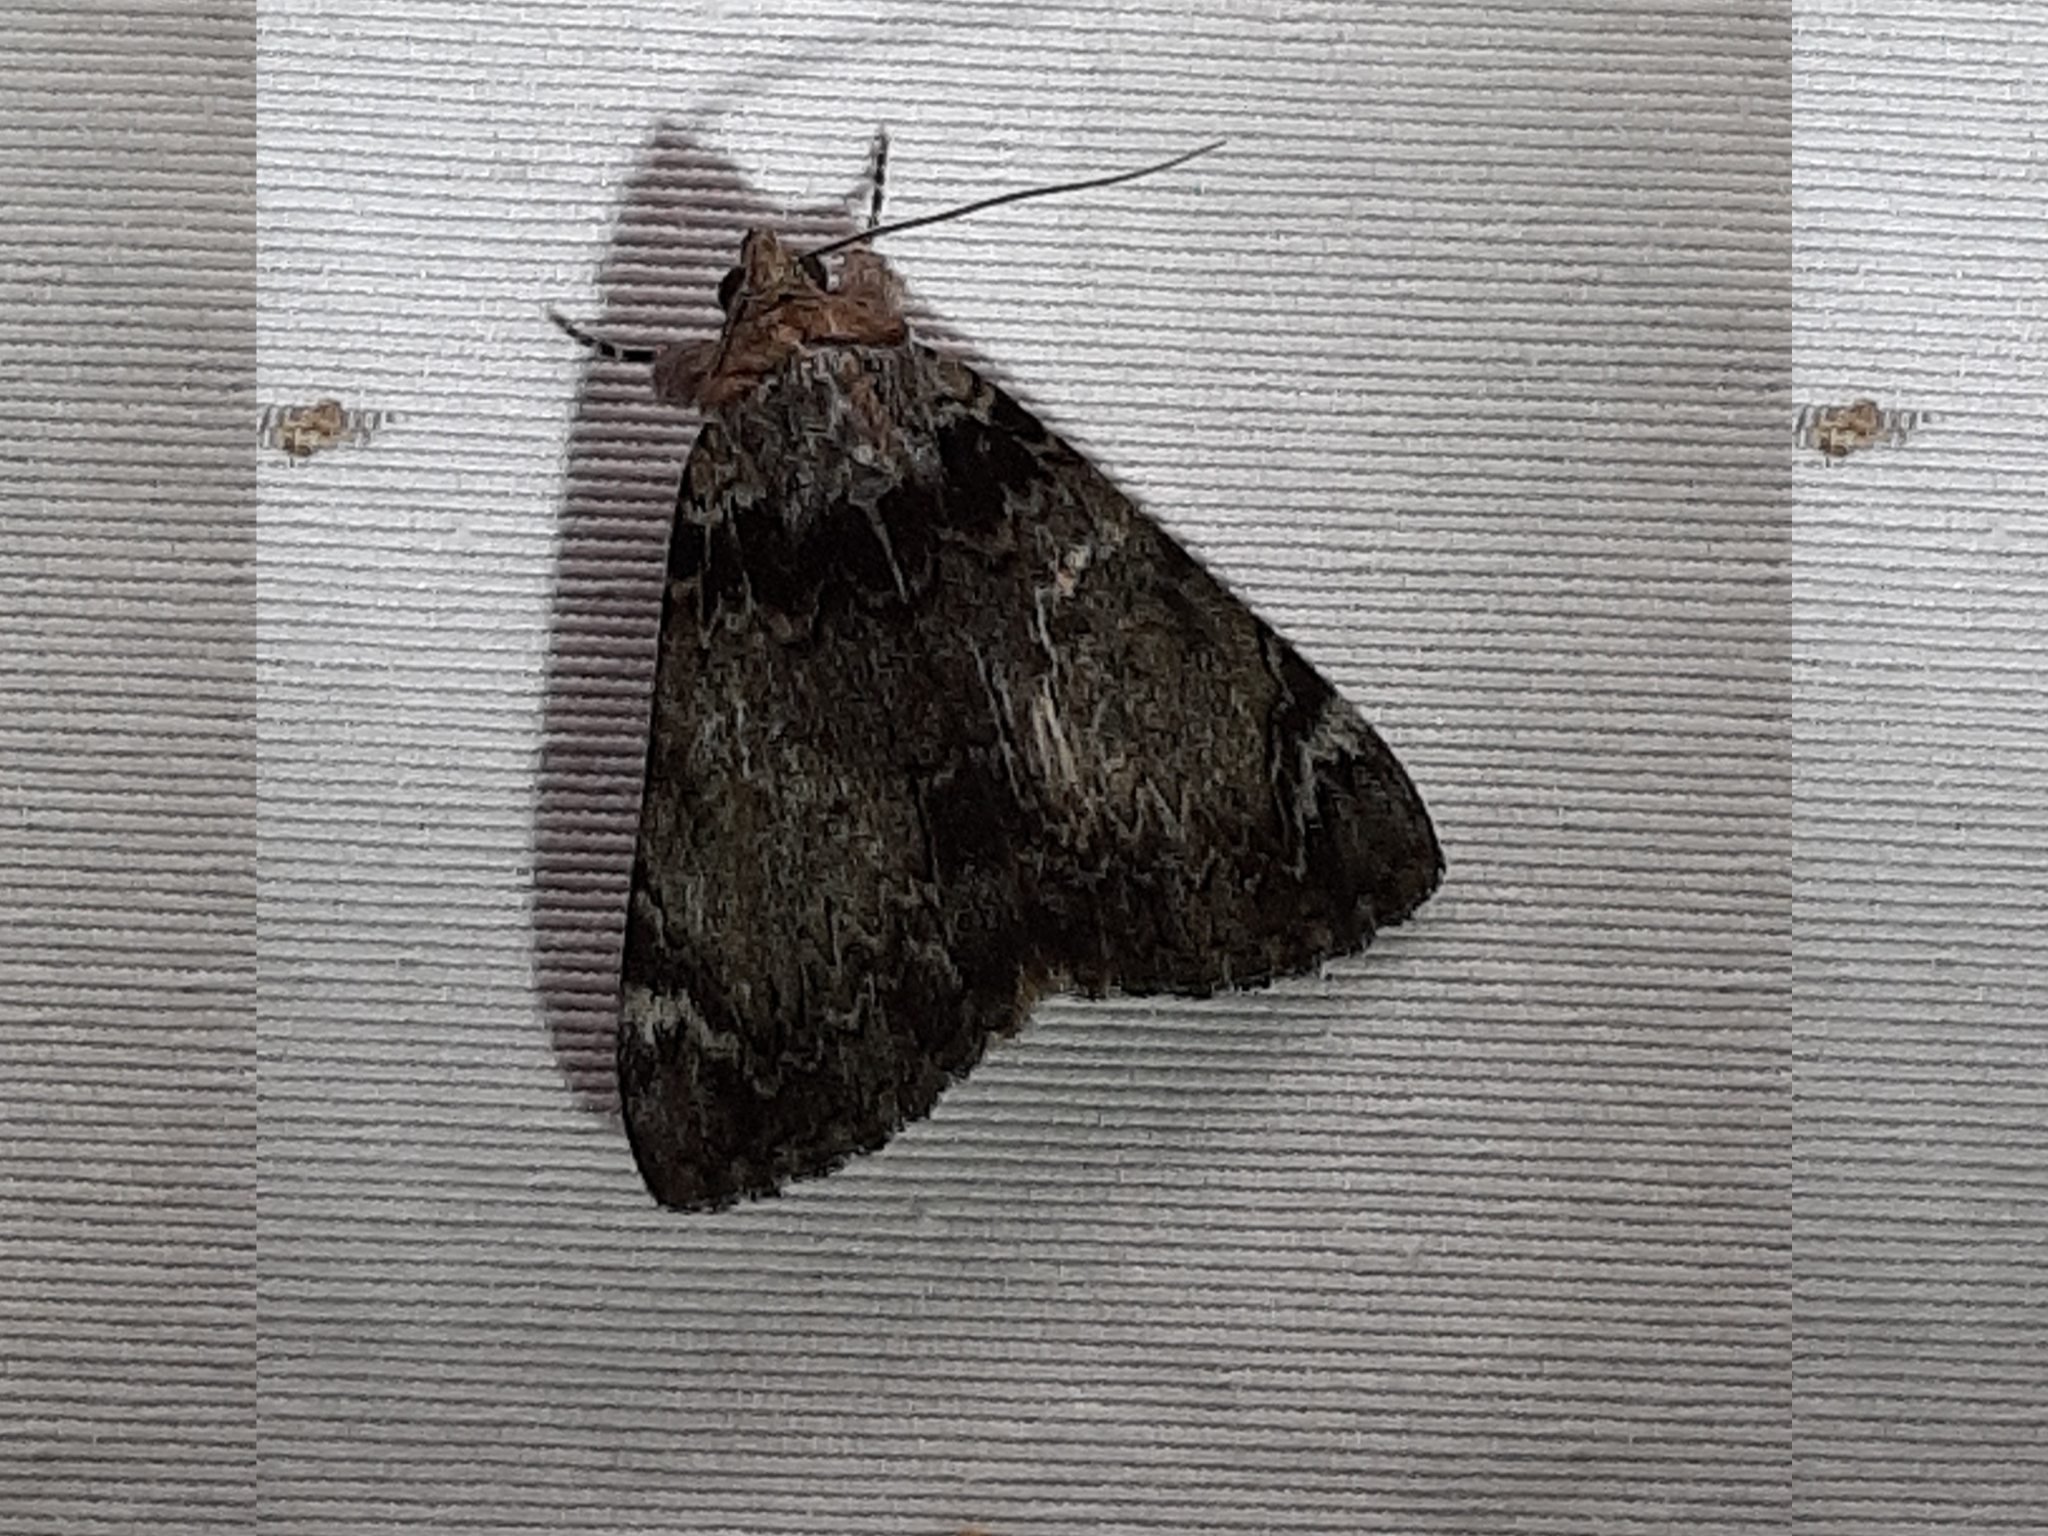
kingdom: Animalia
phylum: Arthropoda
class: Insecta
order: Lepidoptera
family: Erebidae
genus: Catocala
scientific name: Catocala minuta
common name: Little underwing
